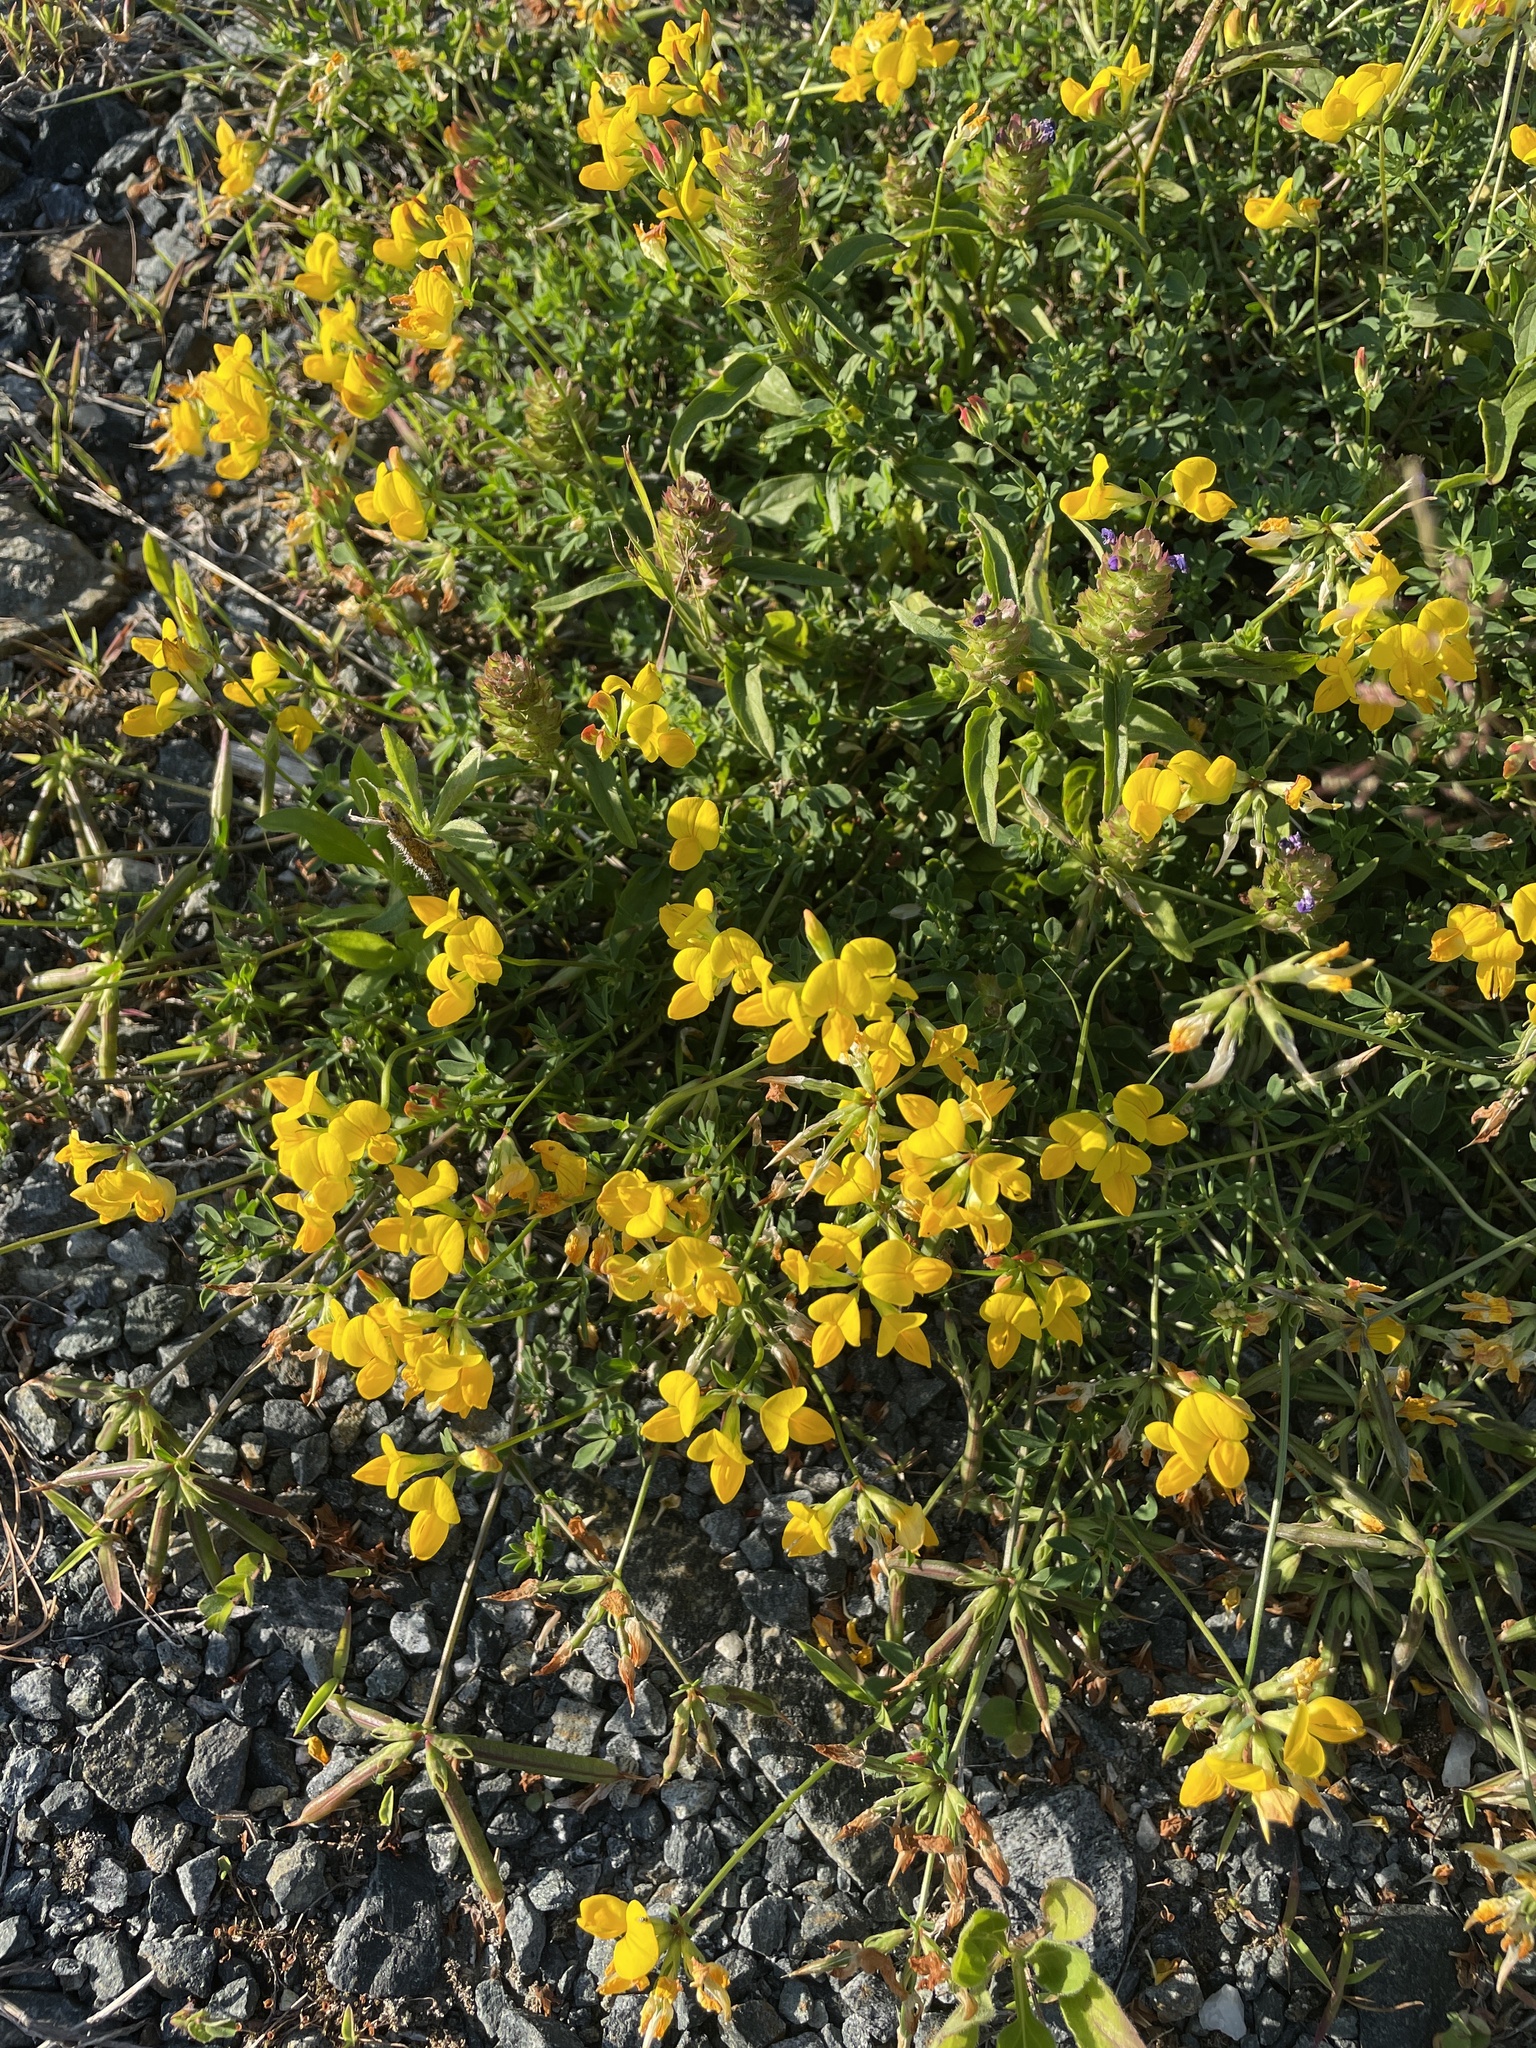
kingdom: Plantae
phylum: Tracheophyta
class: Magnoliopsida
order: Fabales
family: Fabaceae
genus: Lotus
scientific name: Lotus corniculatus
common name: Common bird's-foot-trefoil
